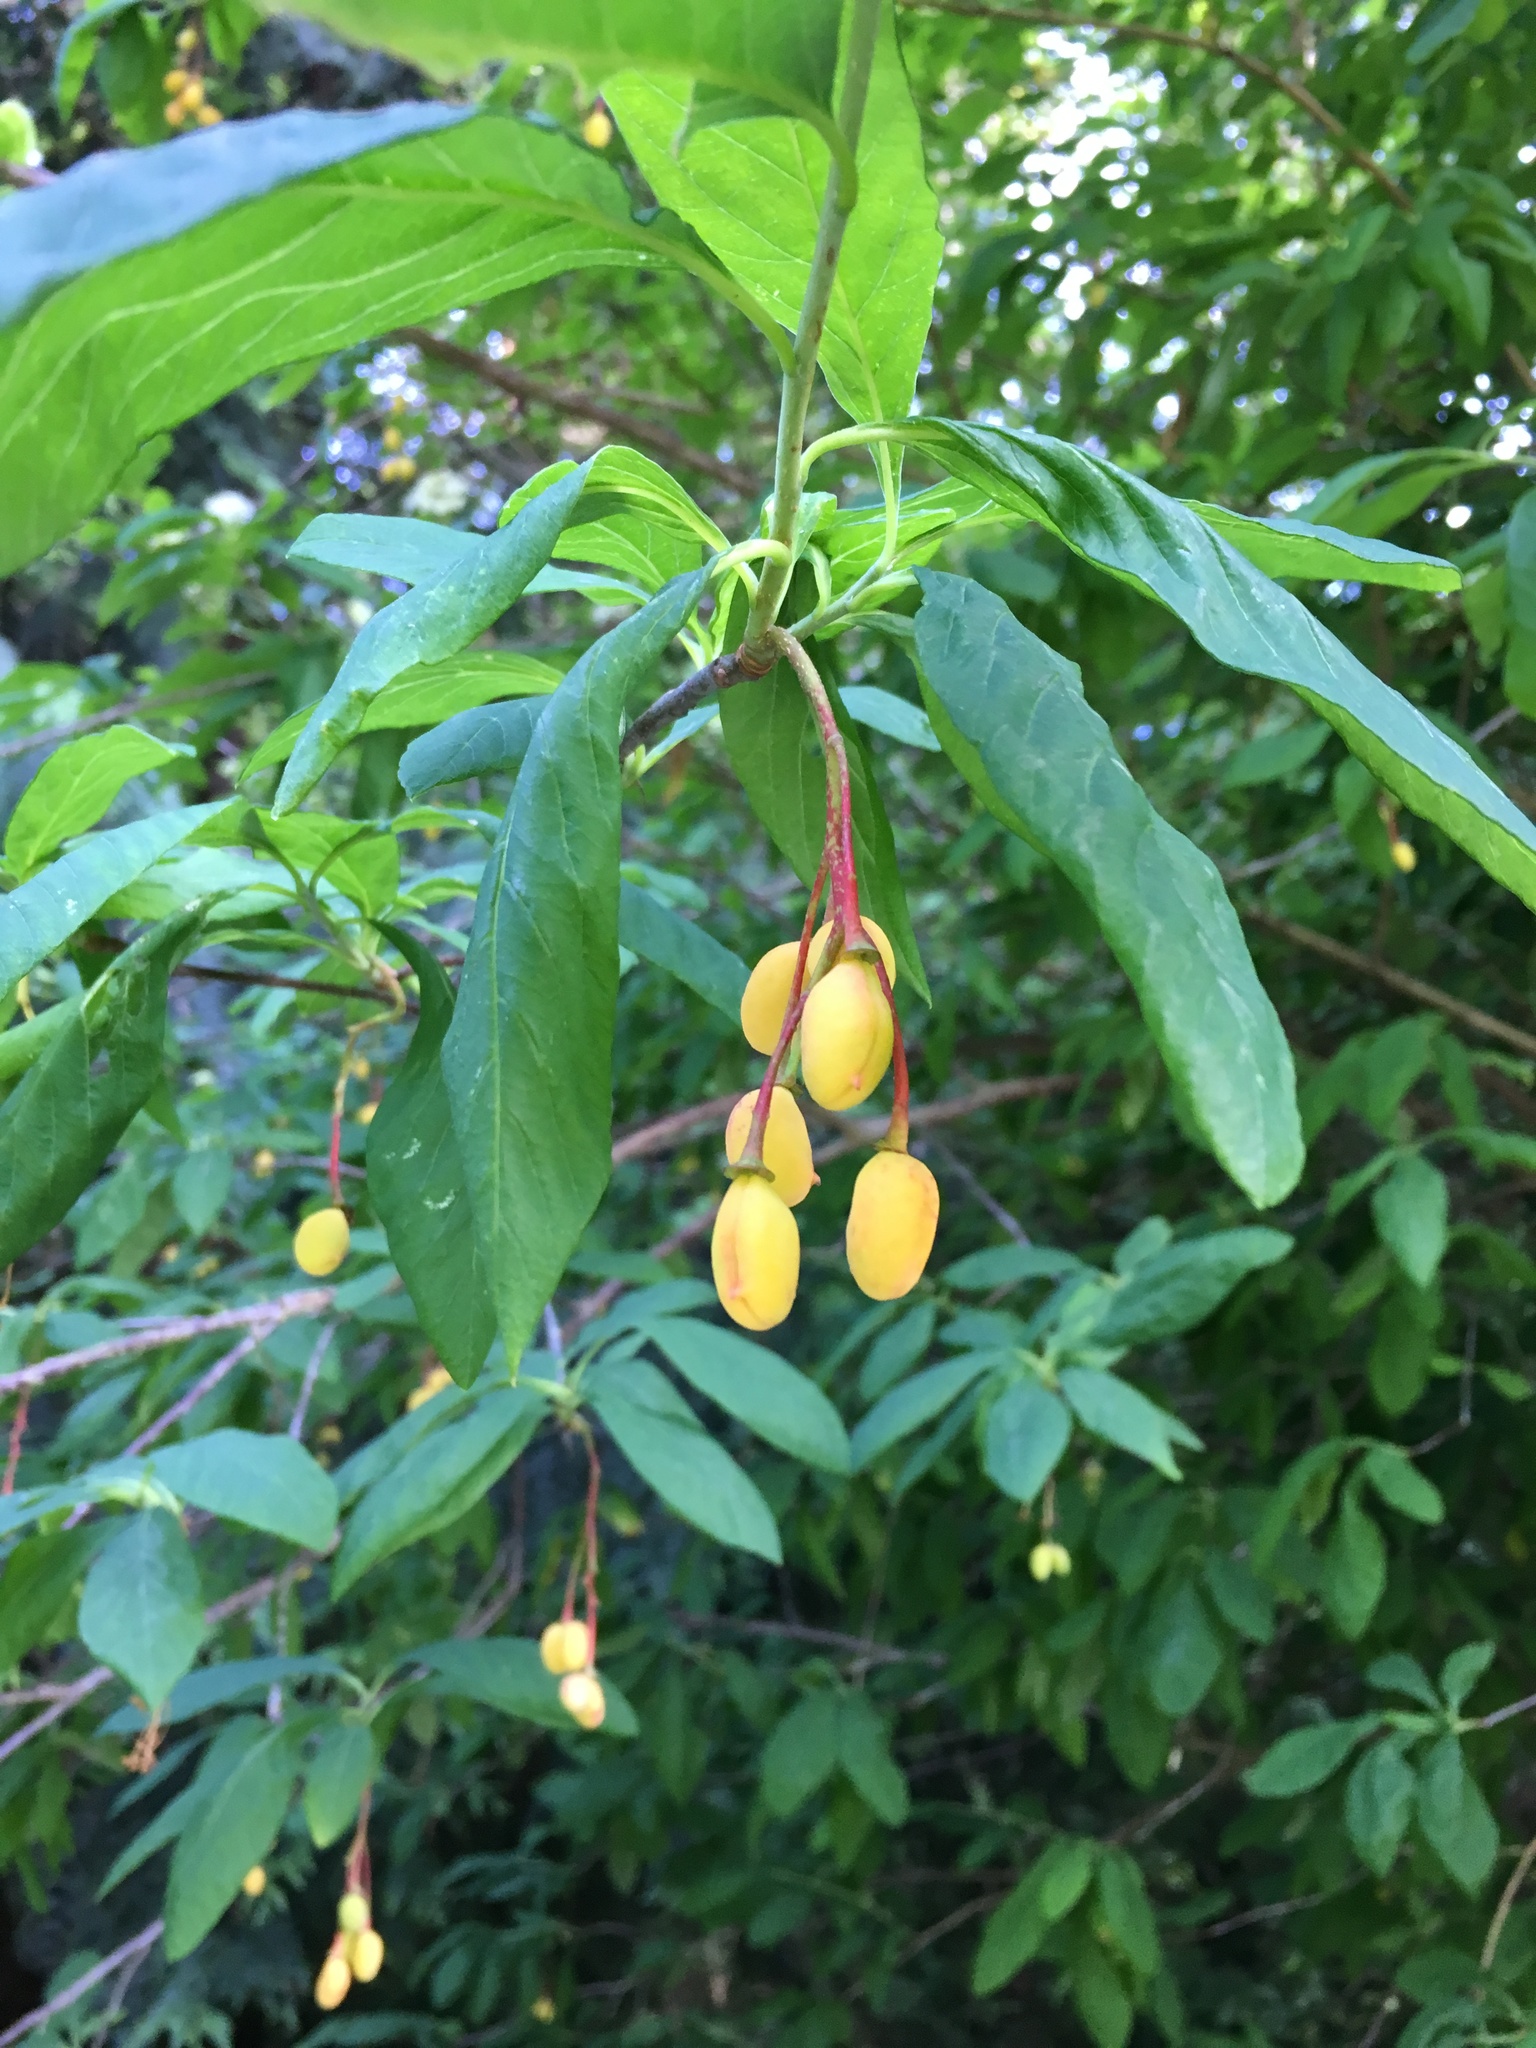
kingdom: Plantae
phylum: Tracheophyta
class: Magnoliopsida
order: Rosales
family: Rosaceae
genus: Oemleria
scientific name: Oemleria cerasiformis
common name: Osoberry
